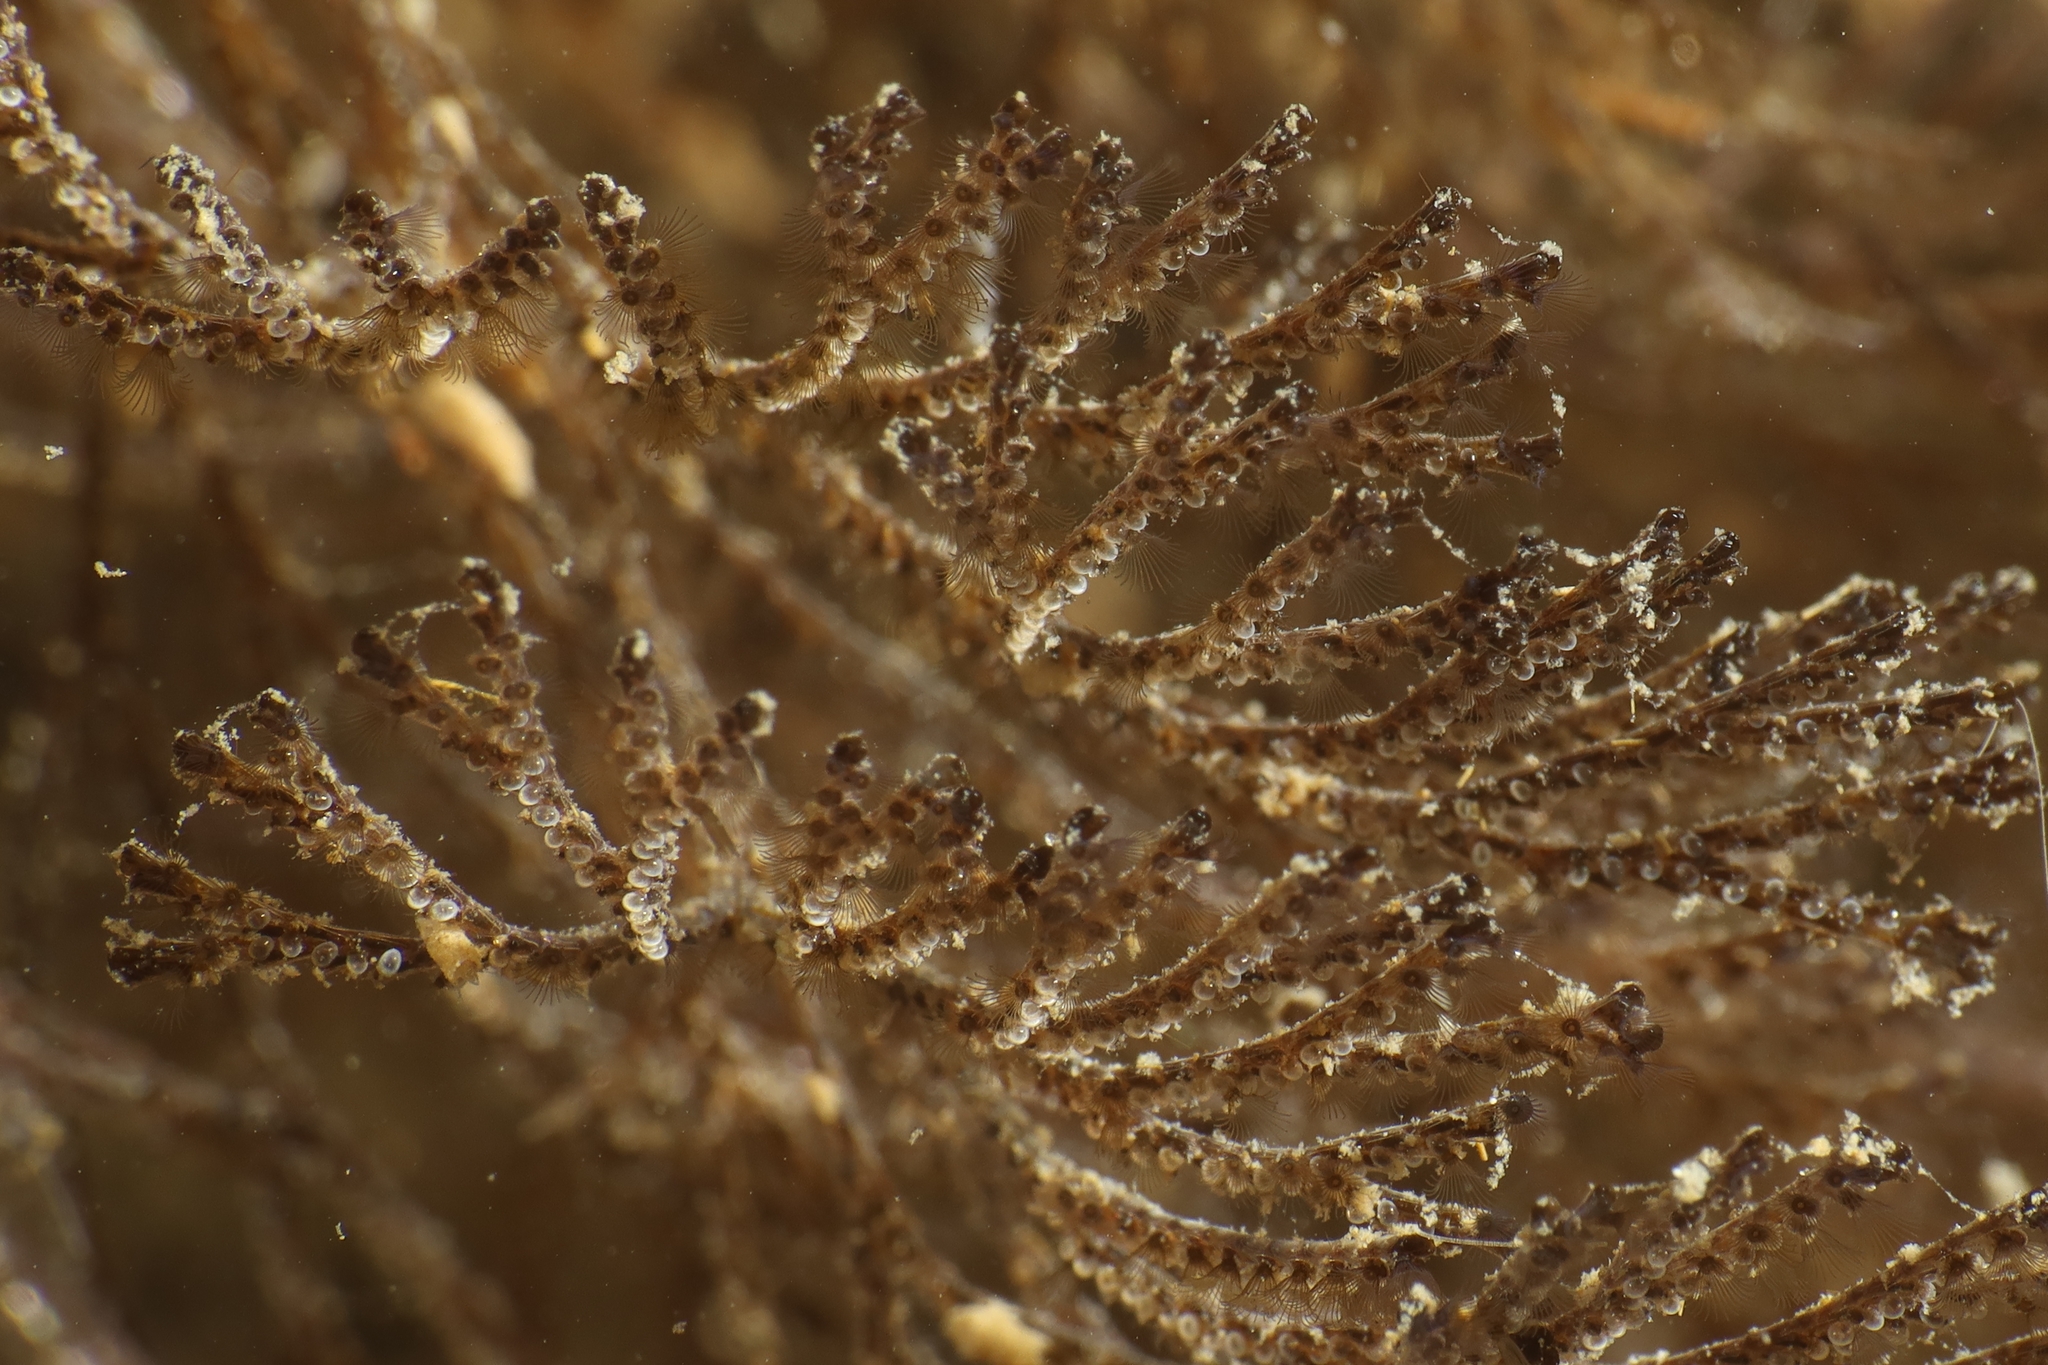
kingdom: Animalia
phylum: Bryozoa
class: Gymnolaemata
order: Cheilostomatida
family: Bugulidae
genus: Bugula
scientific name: Bugula neritina
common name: Brown bryozoan
